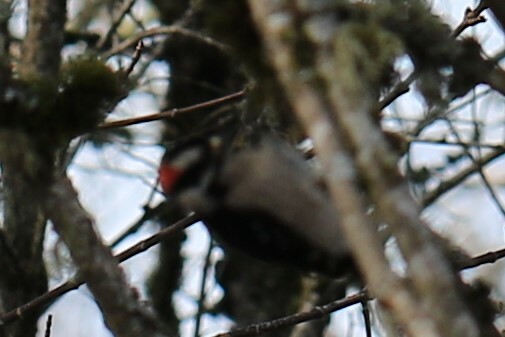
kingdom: Animalia
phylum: Chordata
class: Aves
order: Piciformes
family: Picidae
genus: Dryobates
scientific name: Dryobates pubescens
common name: Downy woodpecker
